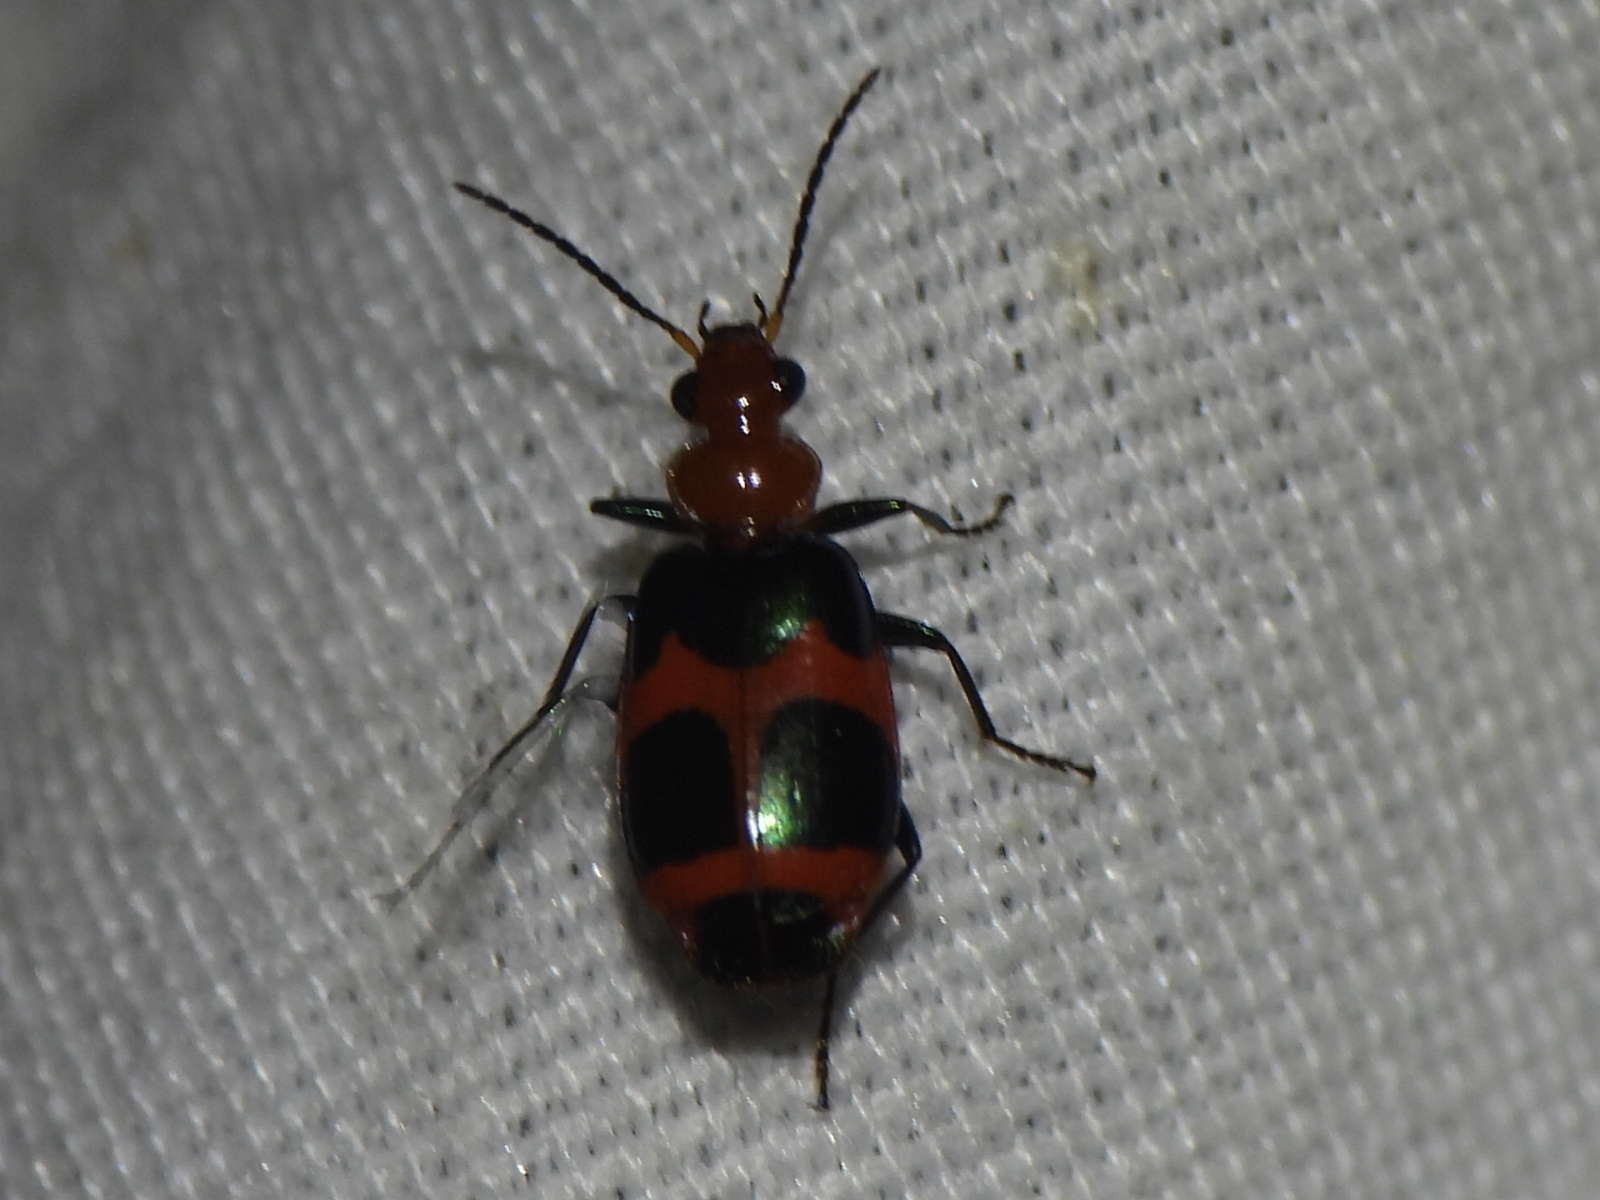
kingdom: Animalia
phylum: Arthropoda
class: Insecta
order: Coleoptera
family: Carabidae
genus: Lebia
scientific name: Lebia bitaeniata
